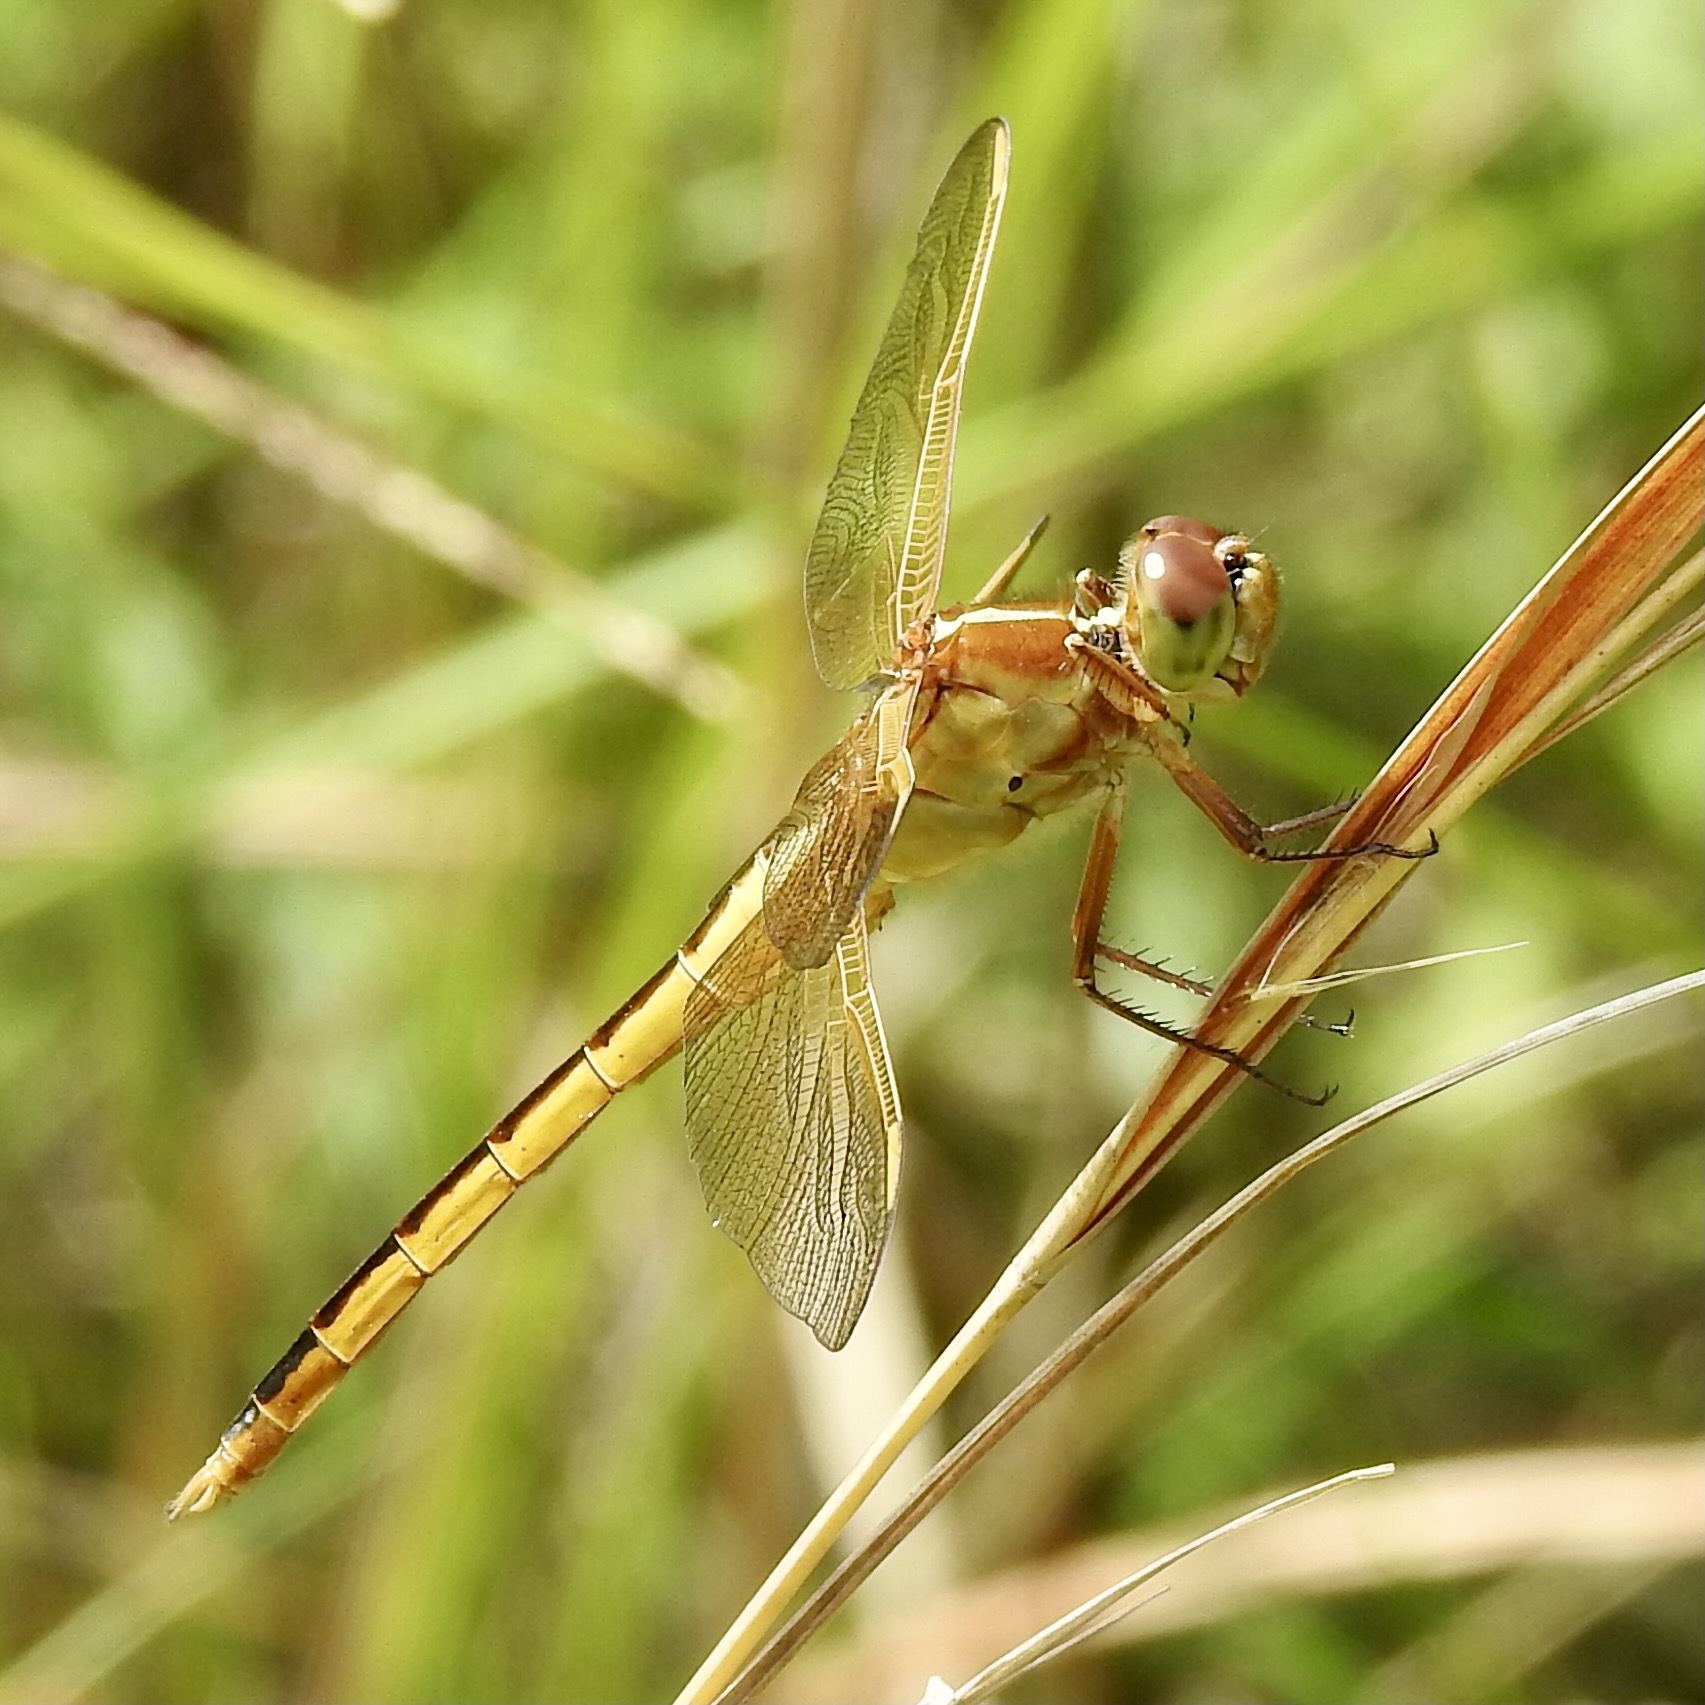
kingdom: Animalia
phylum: Arthropoda
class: Insecta
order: Odonata
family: Libellulidae
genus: Libellula
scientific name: Libellula needhami
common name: Needham's skimmer
